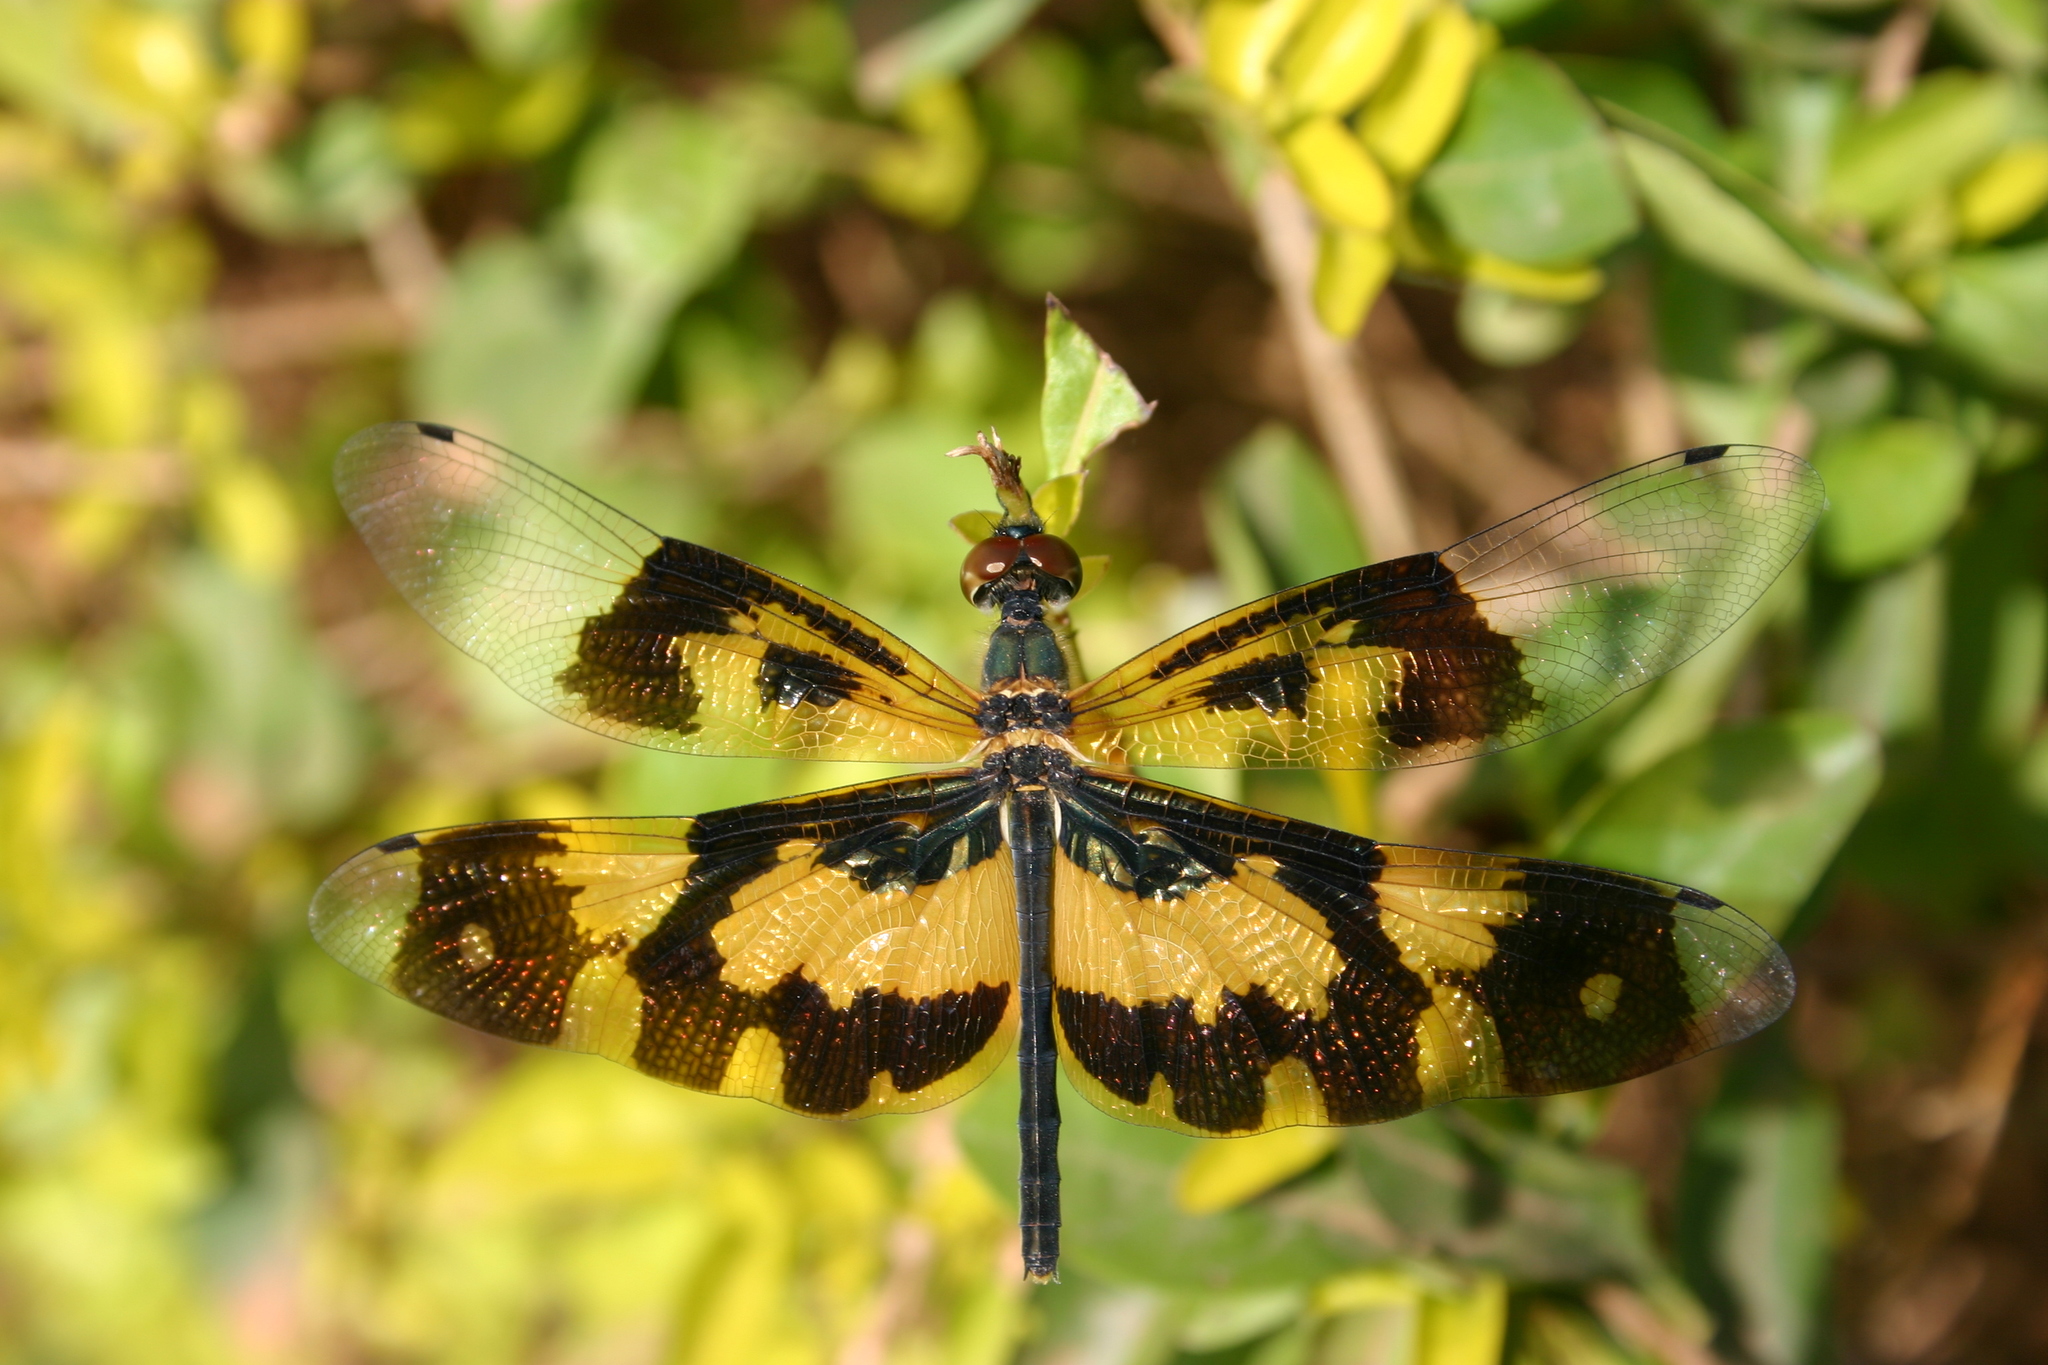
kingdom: Animalia
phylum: Arthropoda
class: Insecta
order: Odonata
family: Libellulidae
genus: Rhyothemis
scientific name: Rhyothemis variegata
